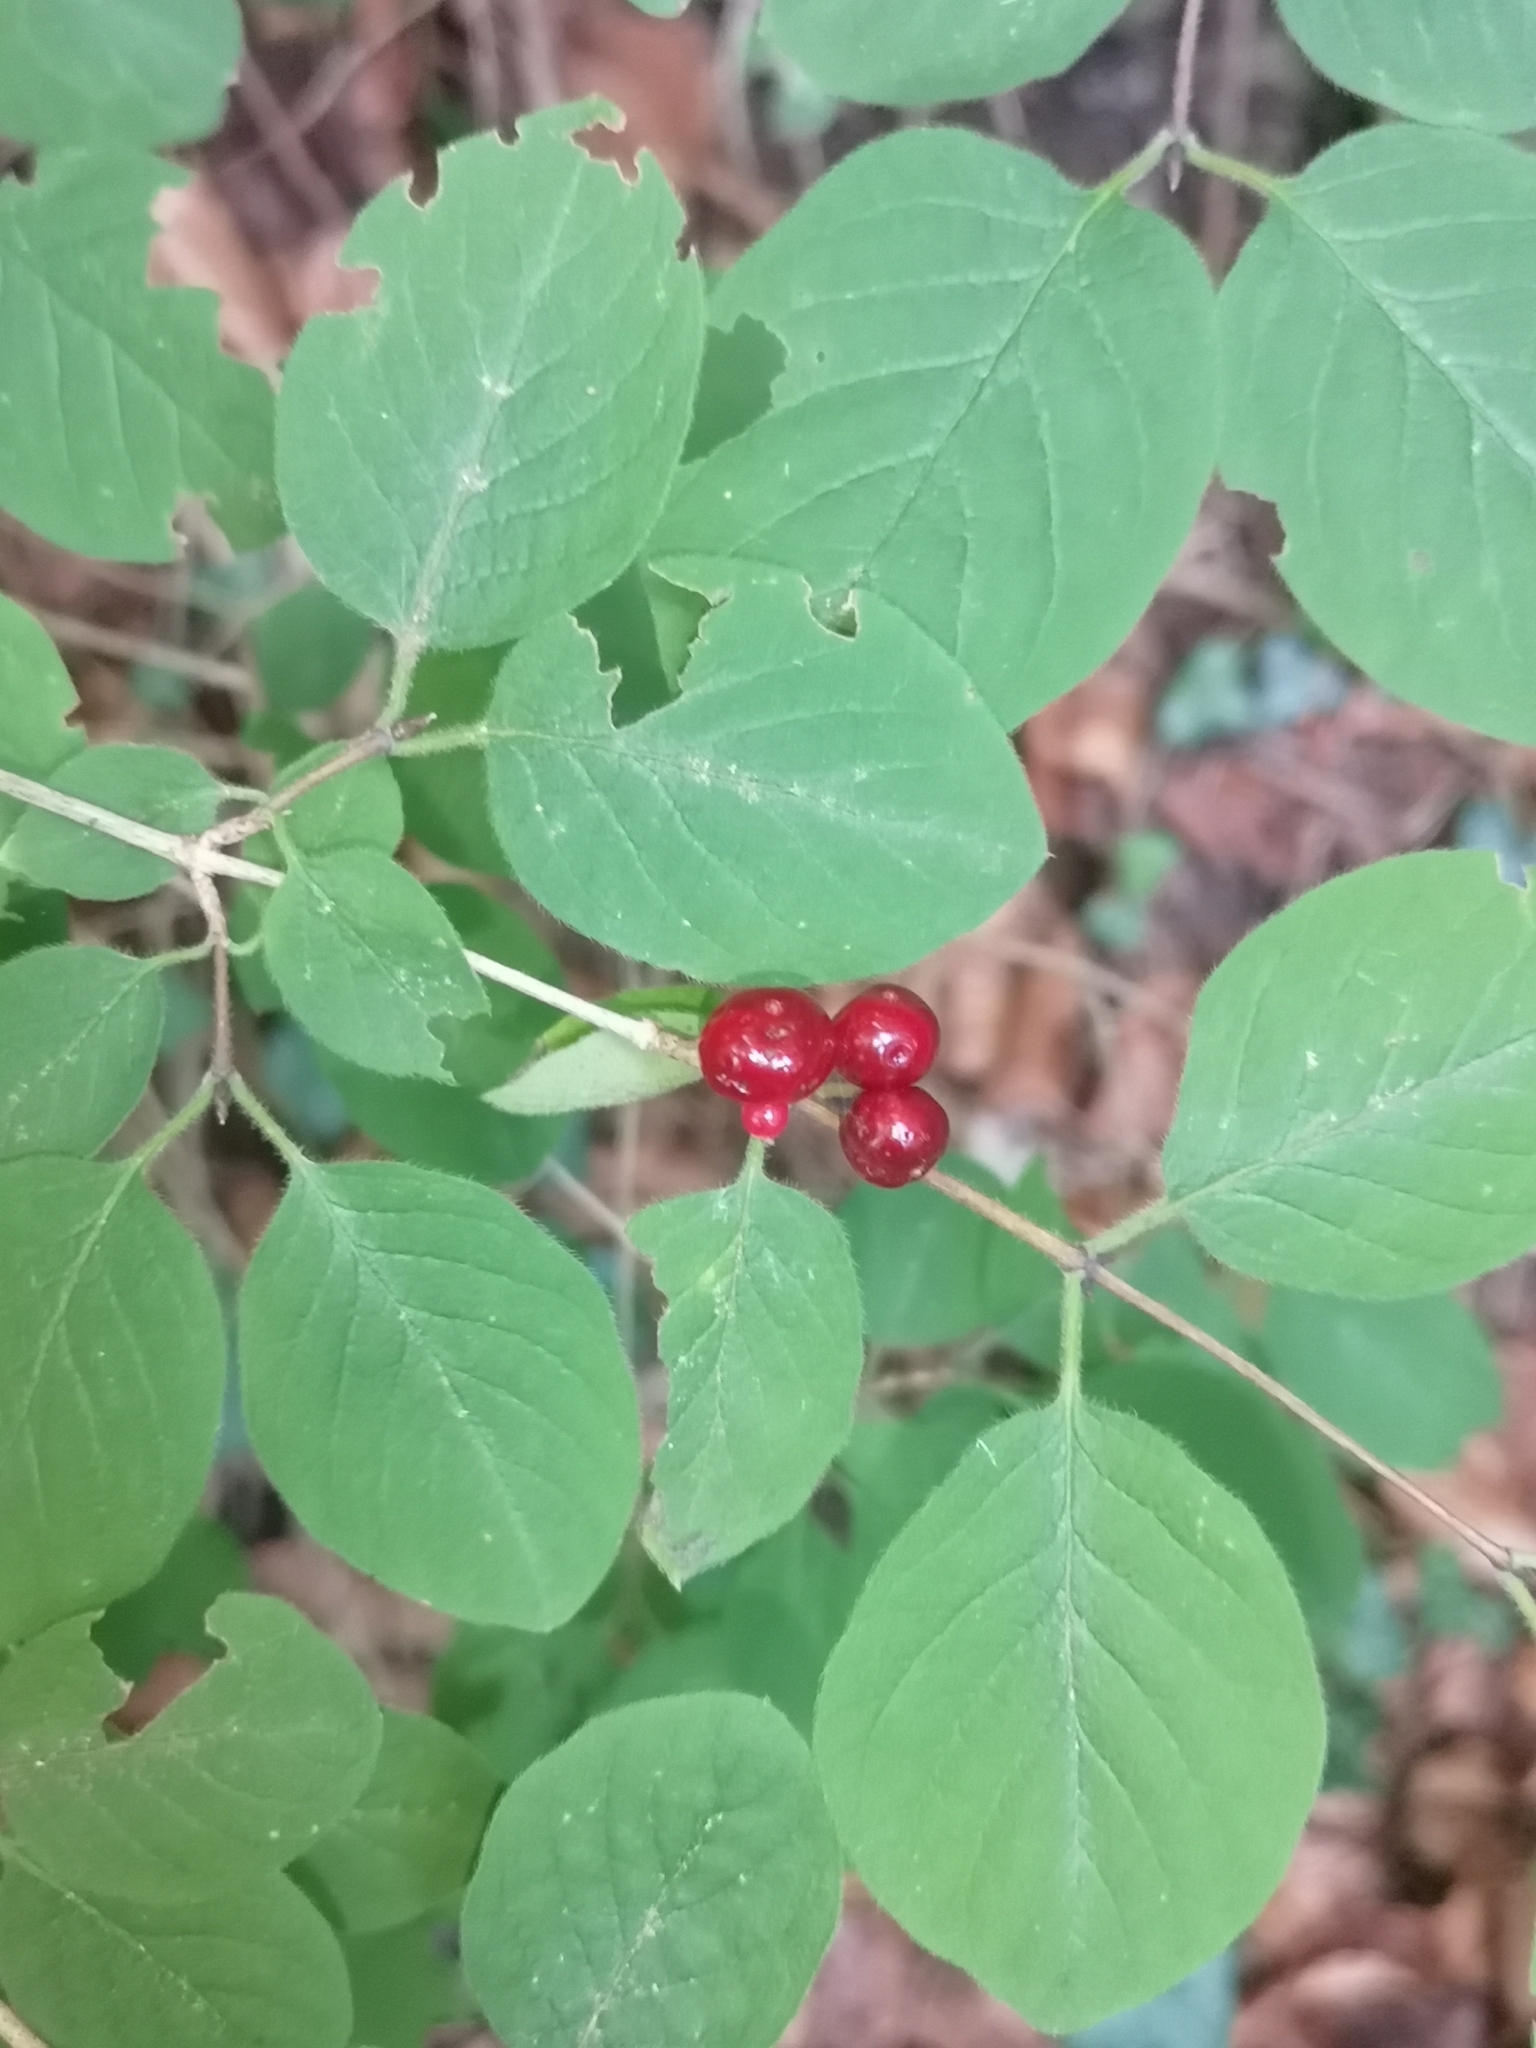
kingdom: Plantae
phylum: Tracheophyta
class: Magnoliopsida
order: Dipsacales
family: Caprifoliaceae
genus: Lonicera
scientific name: Lonicera xylosteum
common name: Fly honeysuckle
